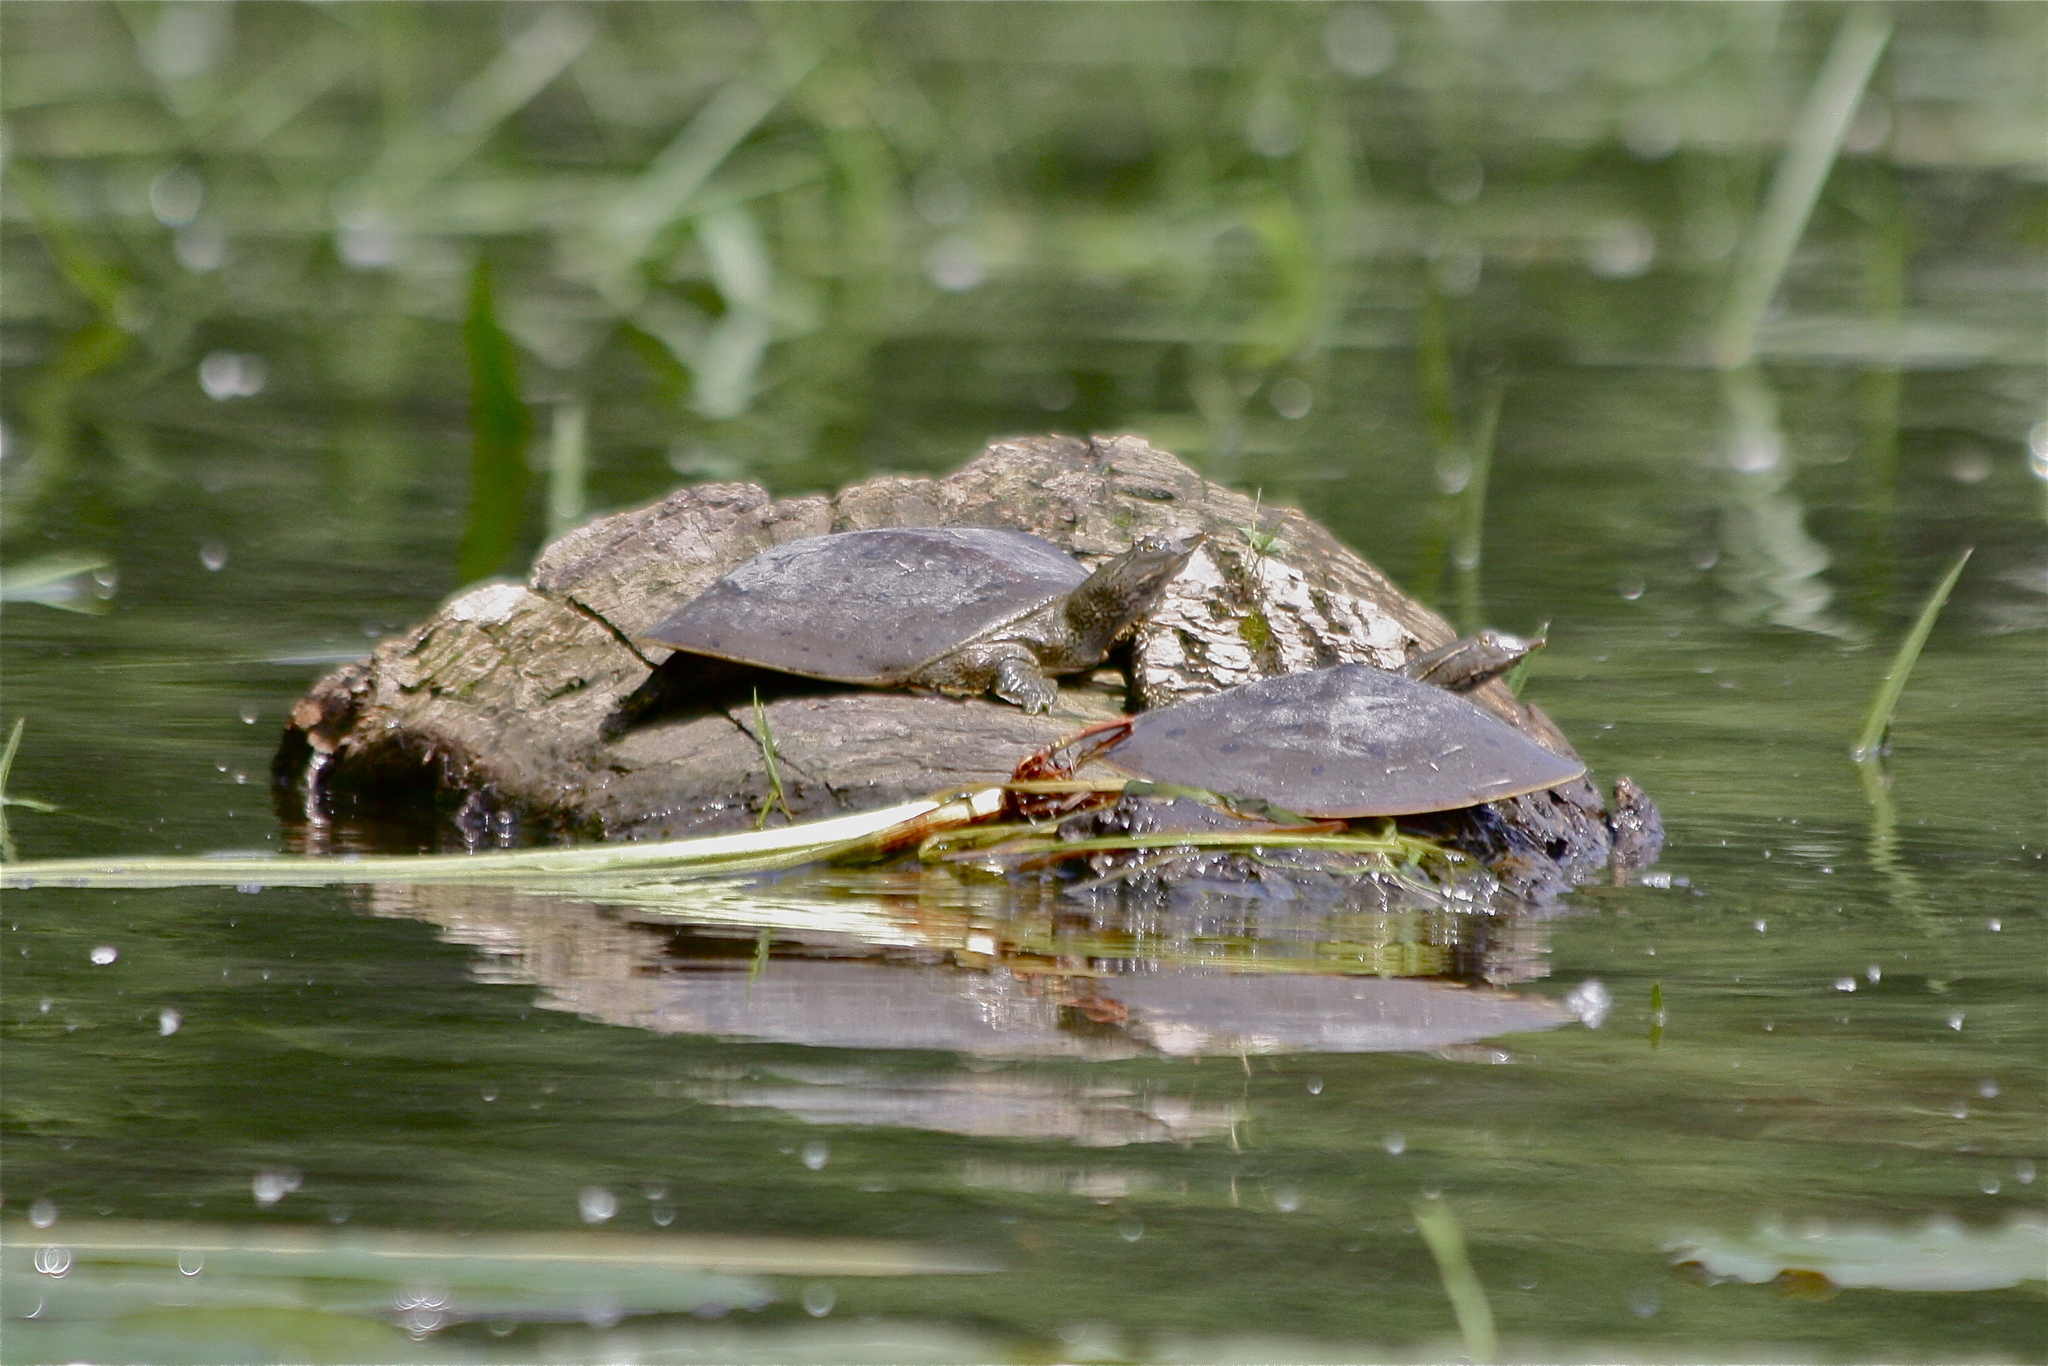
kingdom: Animalia
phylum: Chordata
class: Testudines
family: Trionychidae
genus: Apalone
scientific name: Apalone spinifera
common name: Spiny softshell turtle
